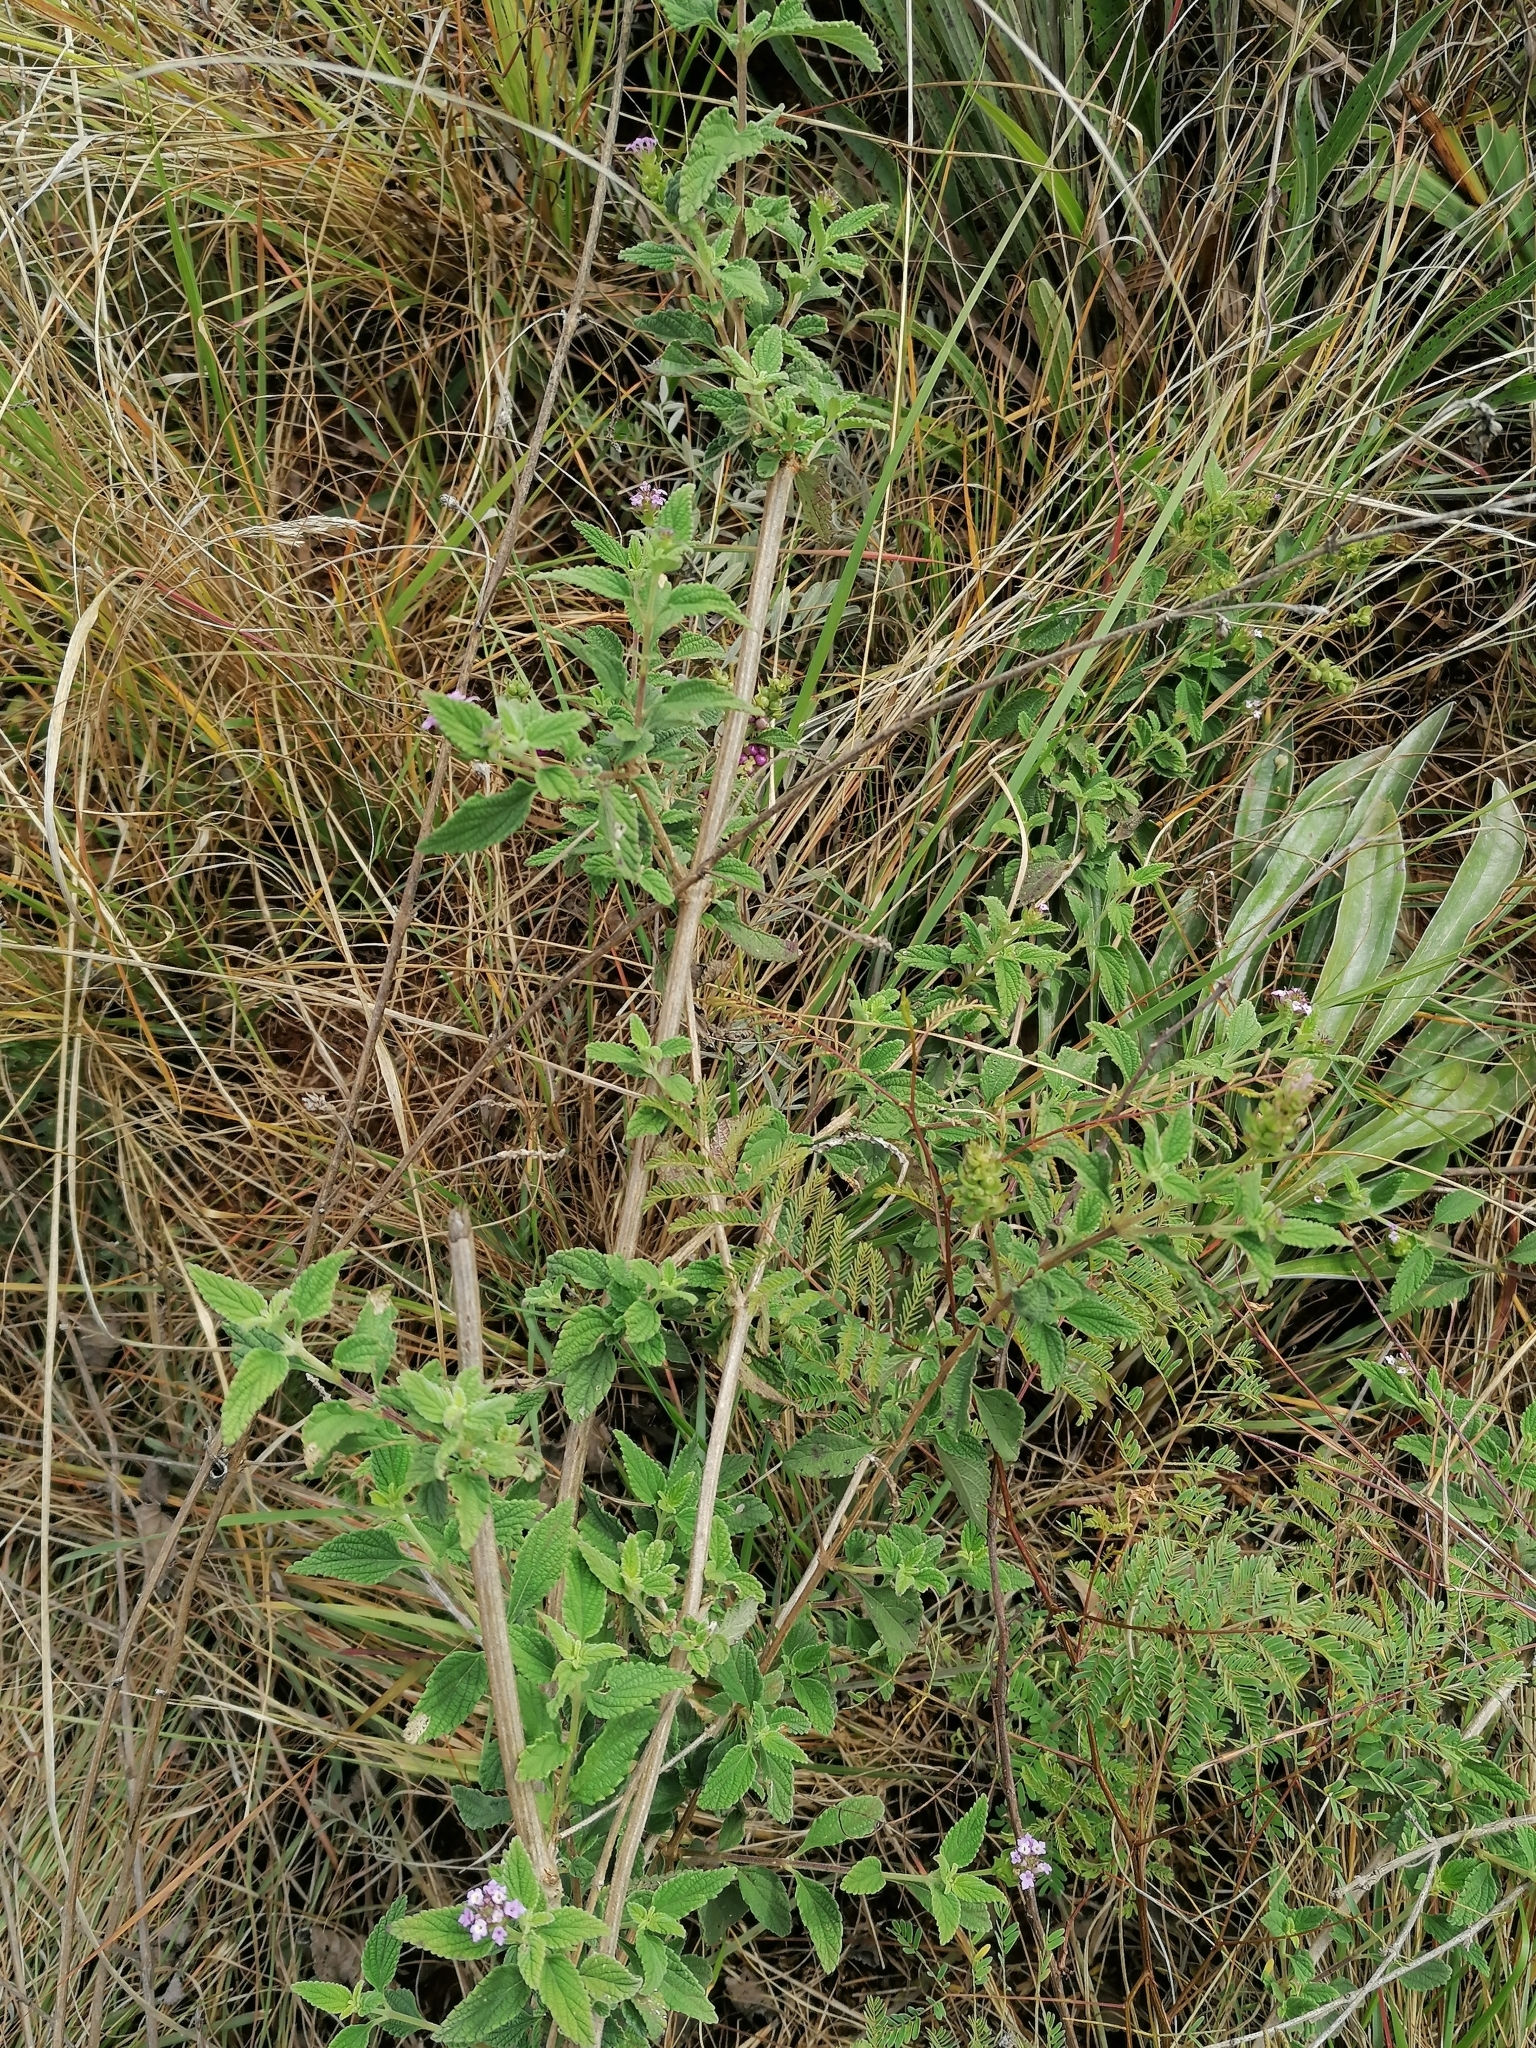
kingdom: Plantae
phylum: Tracheophyta
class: Magnoliopsida
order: Lamiales
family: Verbenaceae
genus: Lantana
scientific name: Lantana rugosa
